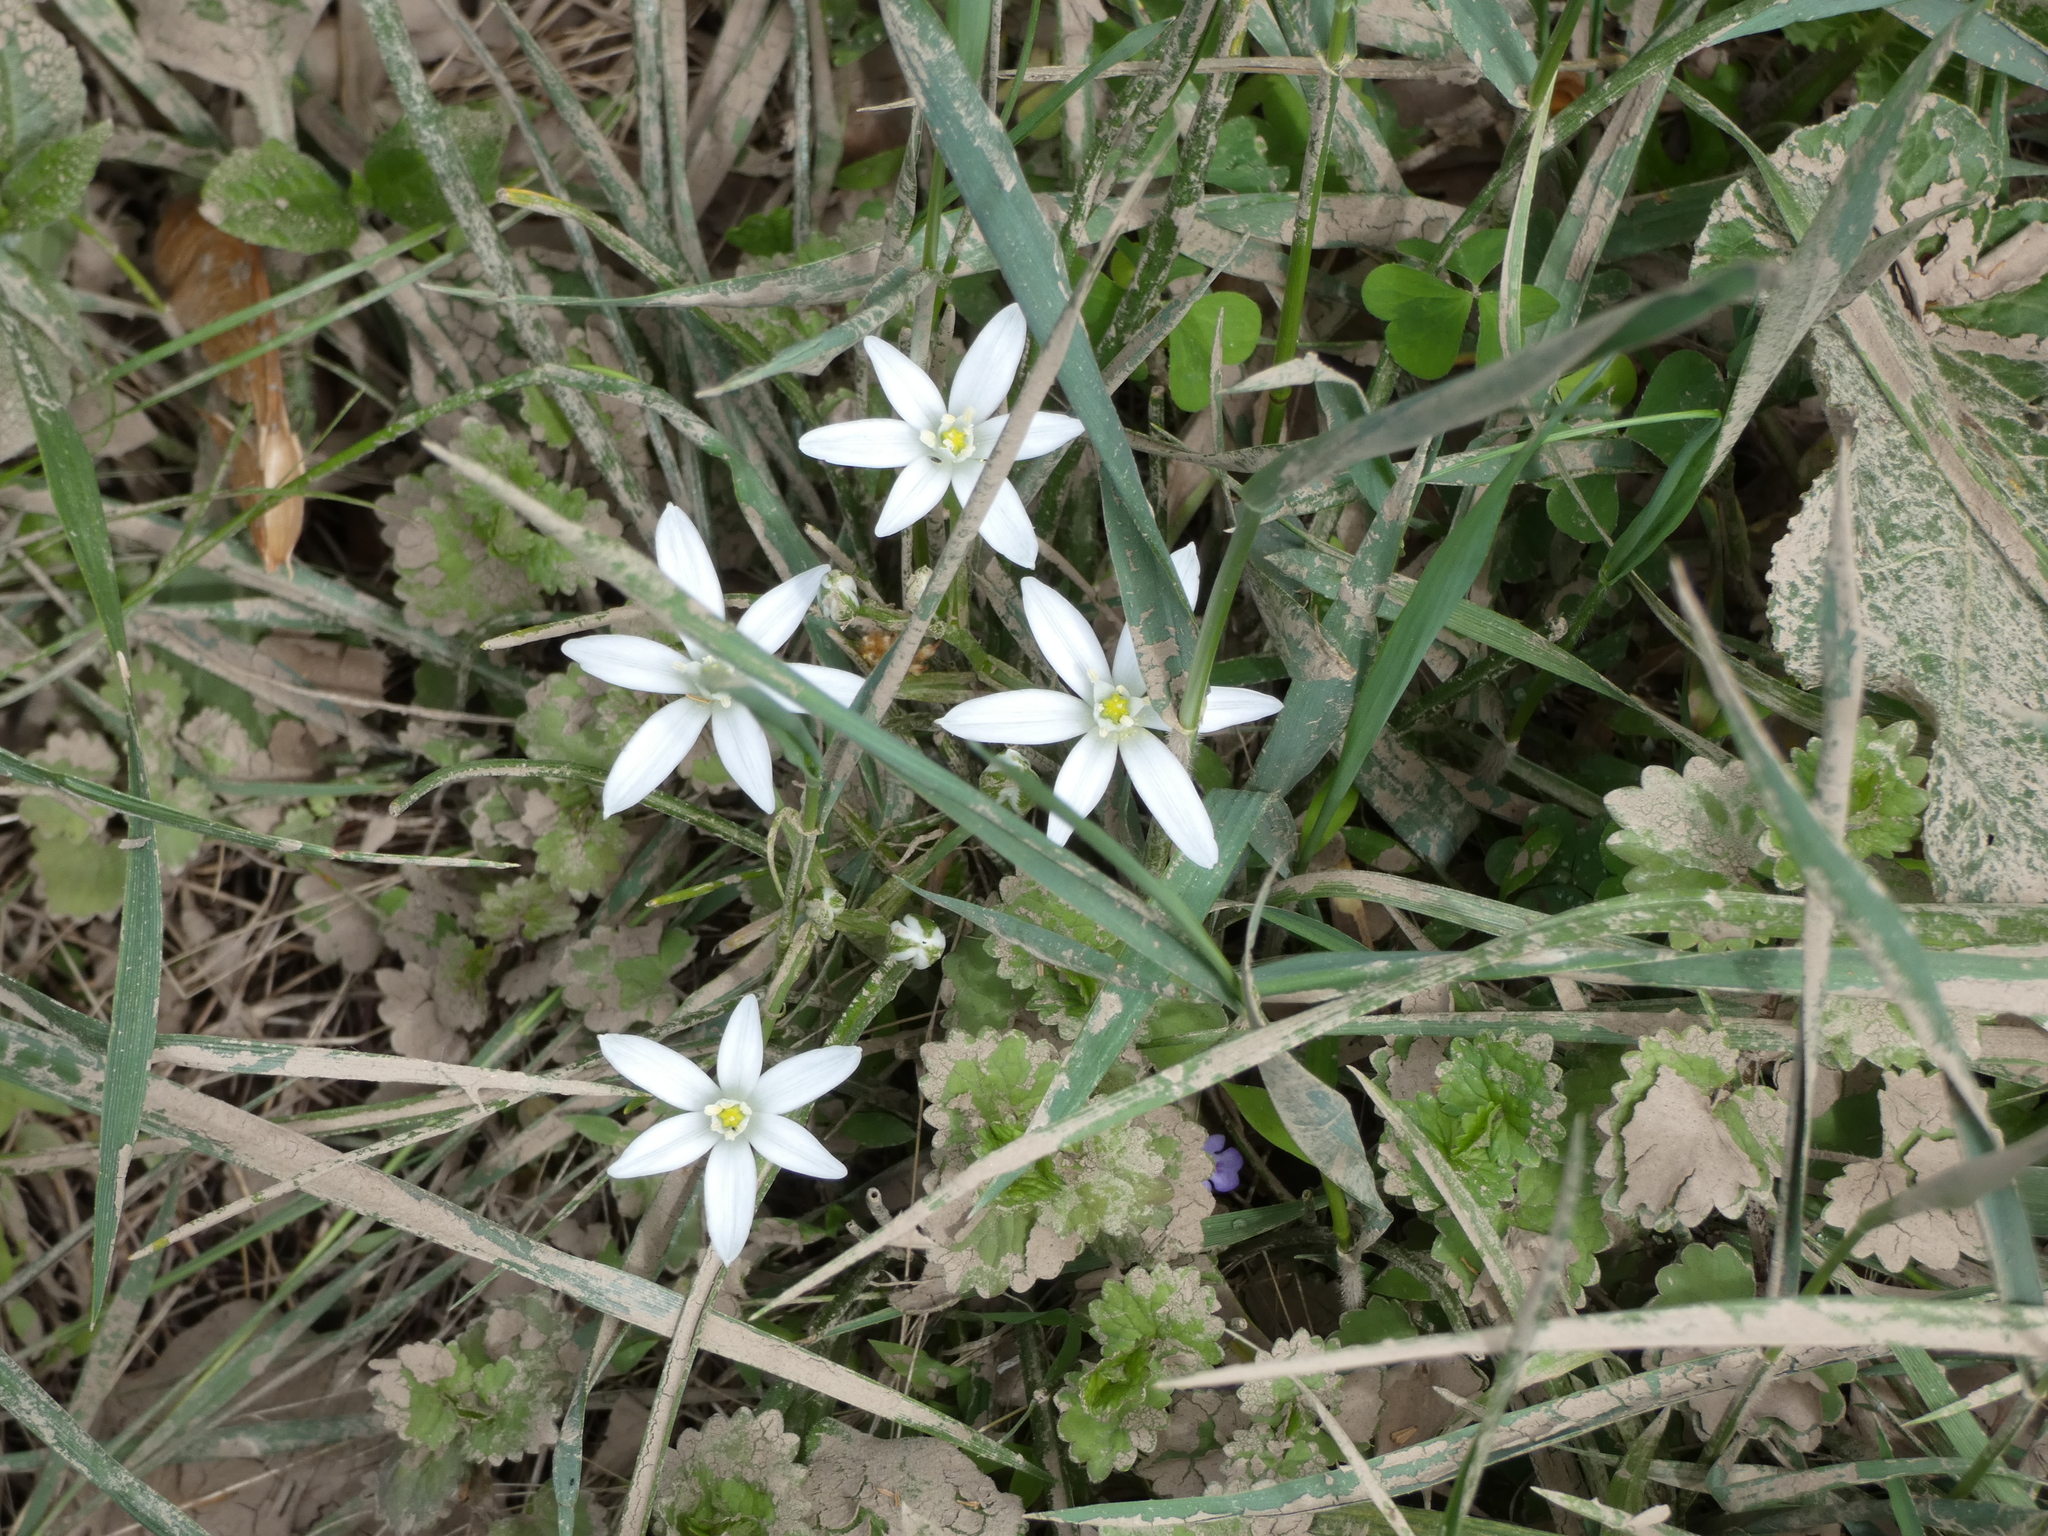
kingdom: Plantae
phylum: Tracheophyta
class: Liliopsida
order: Asparagales
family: Asparagaceae
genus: Ornithogalum
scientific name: Ornithogalum umbellatum
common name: Garden star-of-bethlehem
